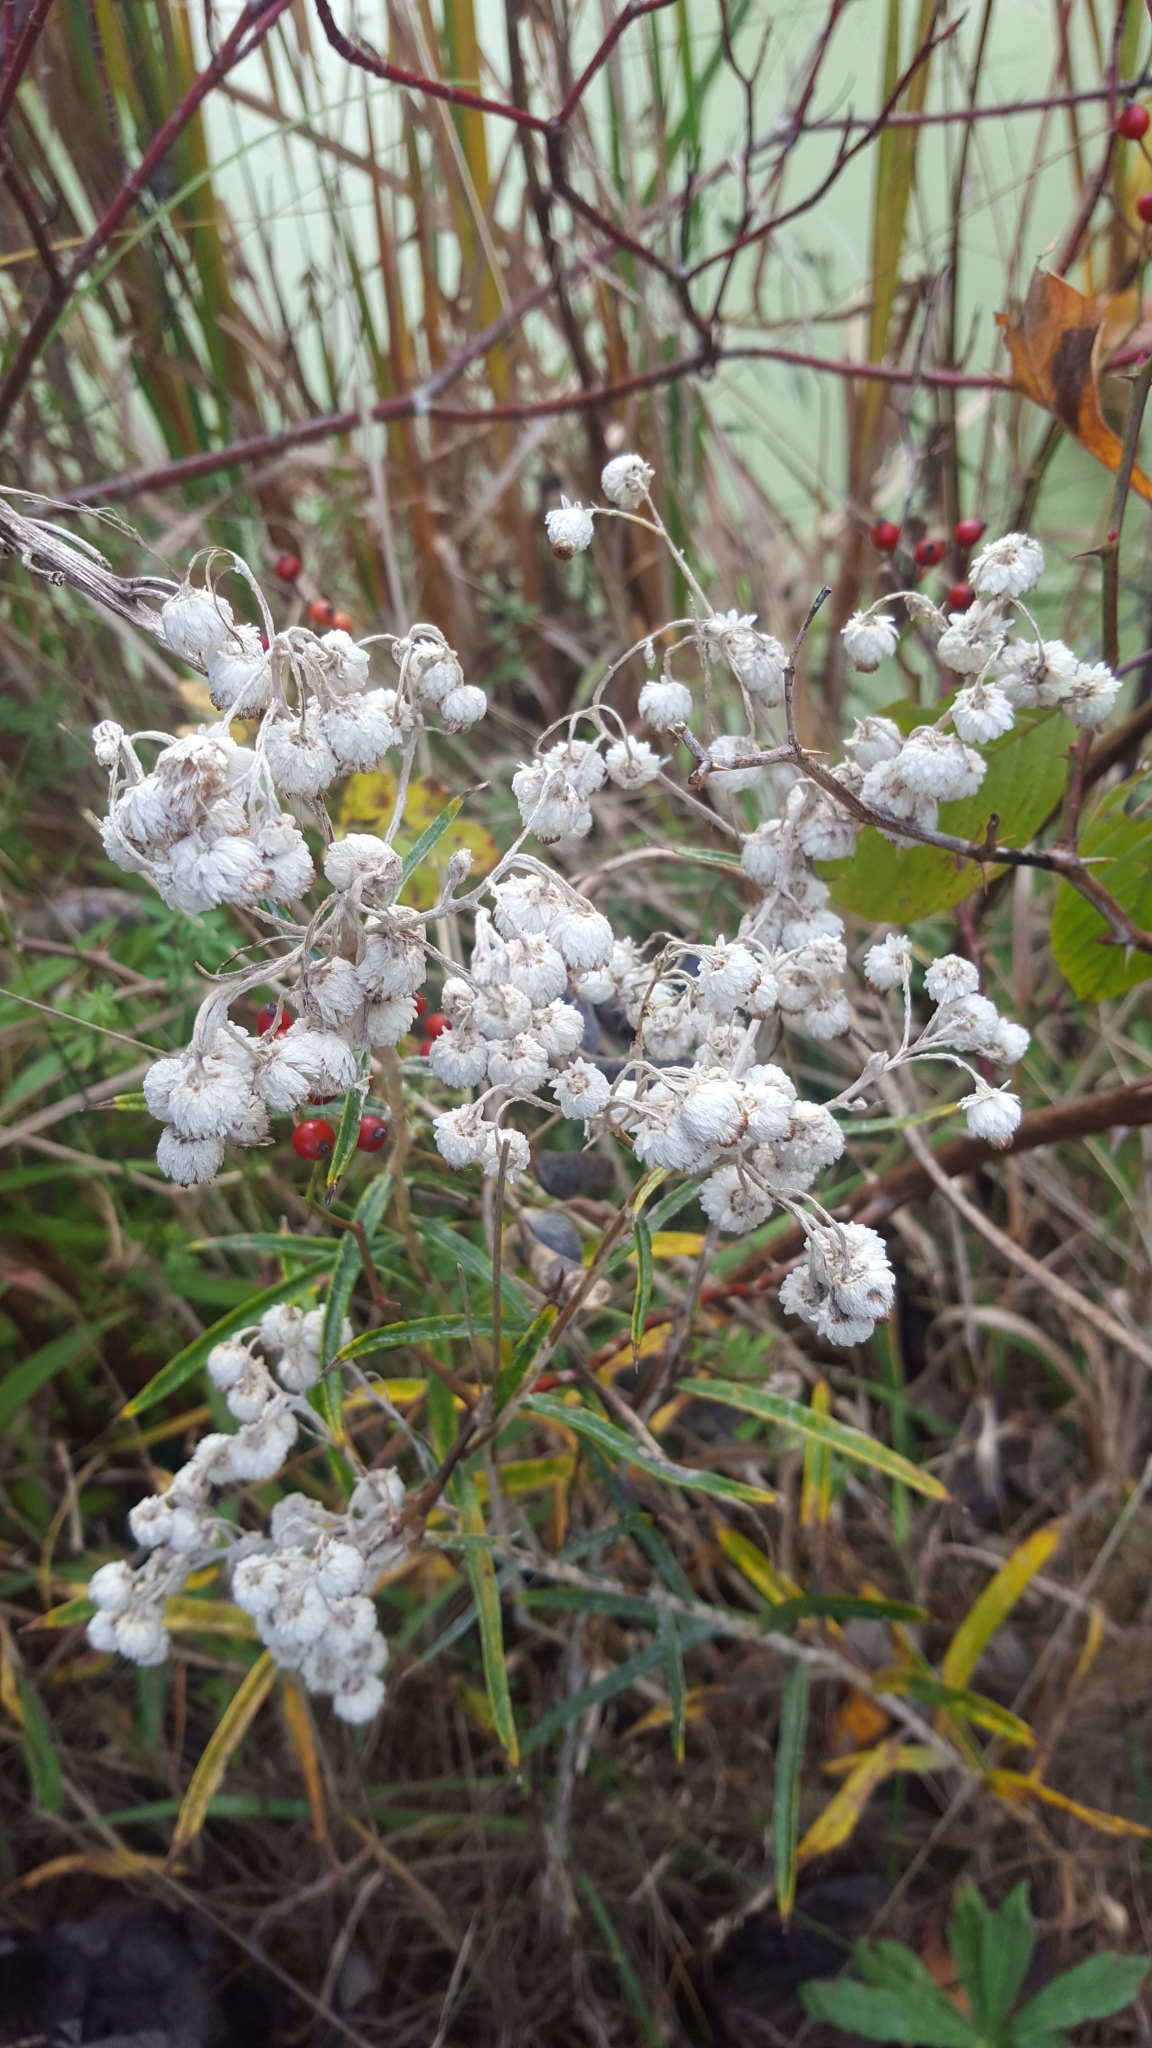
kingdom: Plantae
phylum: Tracheophyta
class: Magnoliopsida
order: Asterales
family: Asteraceae
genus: Anaphalis
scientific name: Anaphalis margaritacea
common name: Pearly everlasting
